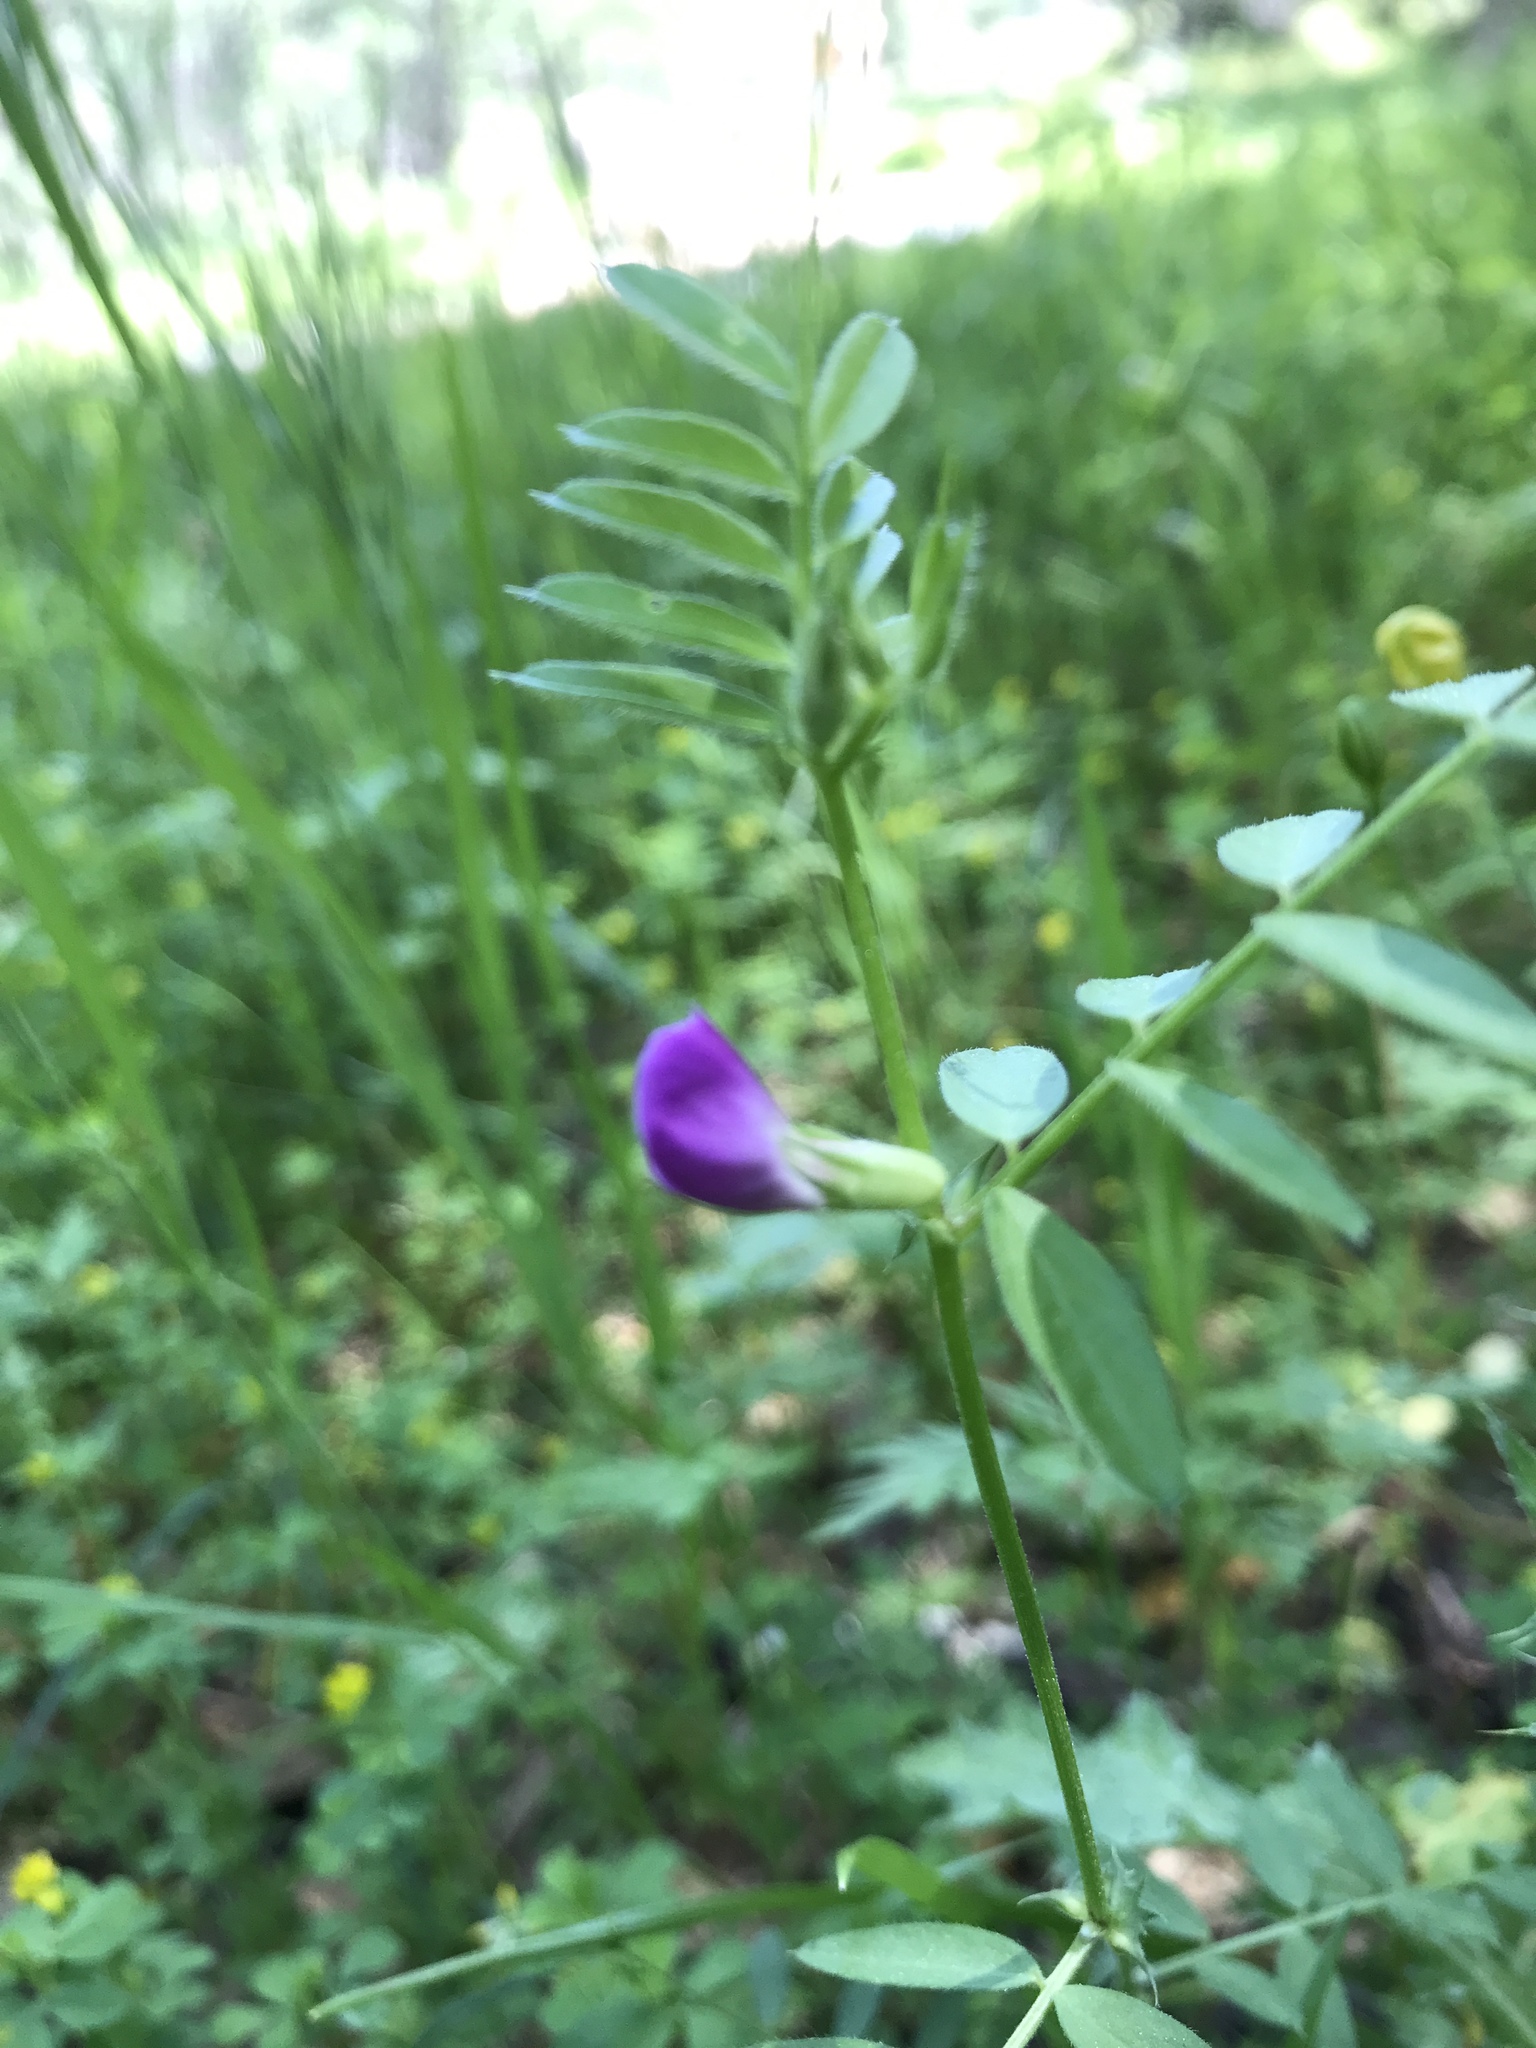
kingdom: Plantae
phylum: Tracheophyta
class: Magnoliopsida
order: Fabales
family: Fabaceae
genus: Vicia
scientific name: Vicia sativa
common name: Garden vetch
